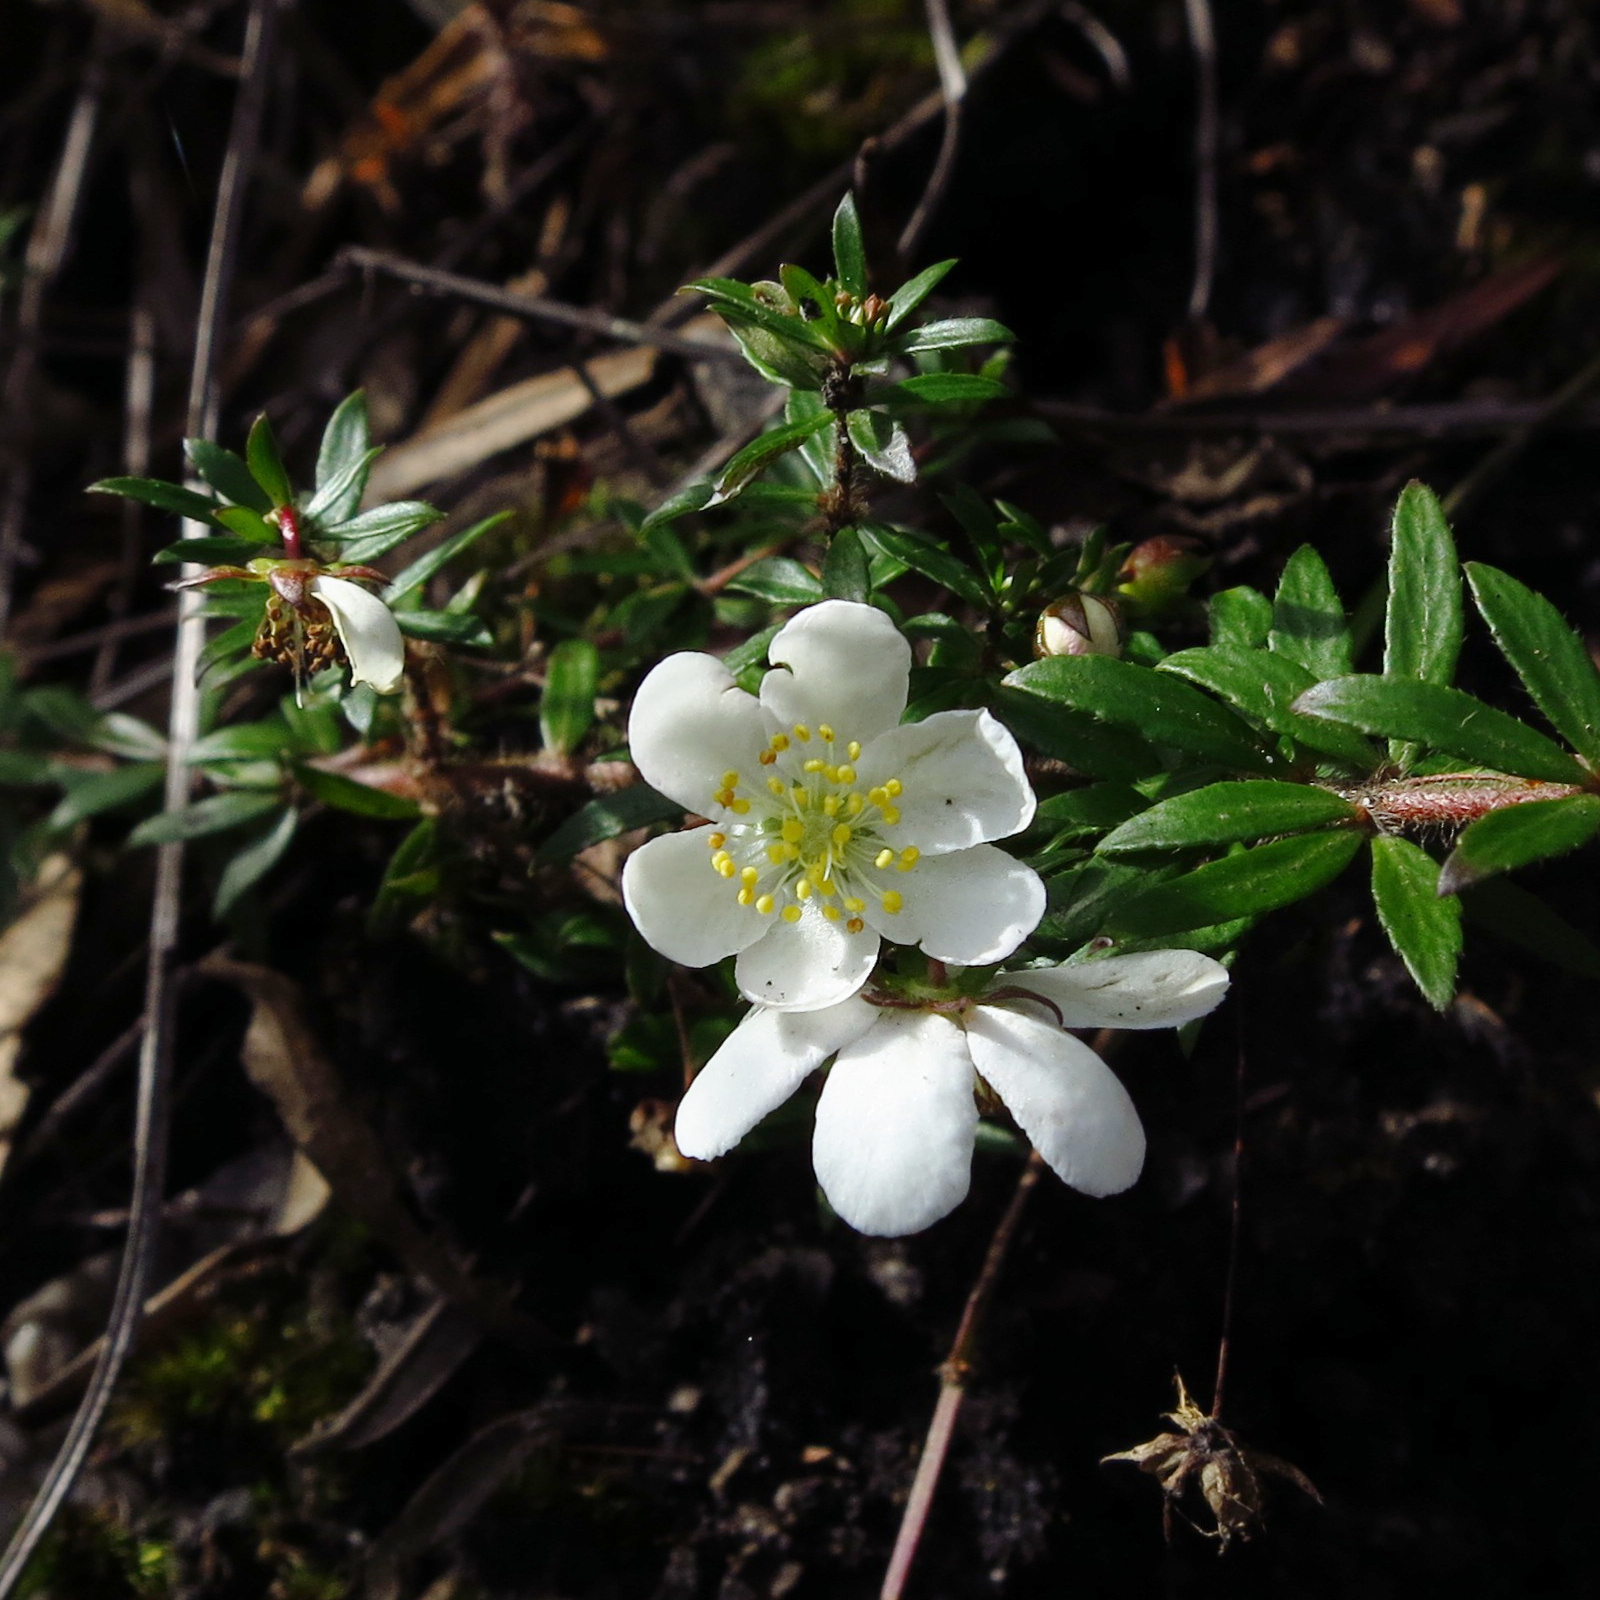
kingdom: Plantae
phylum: Tracheophyta
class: Magnoliopsida
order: Oxalidales
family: Cunoniaceae
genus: Bauera
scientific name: Bauera rubioides
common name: River-rose
